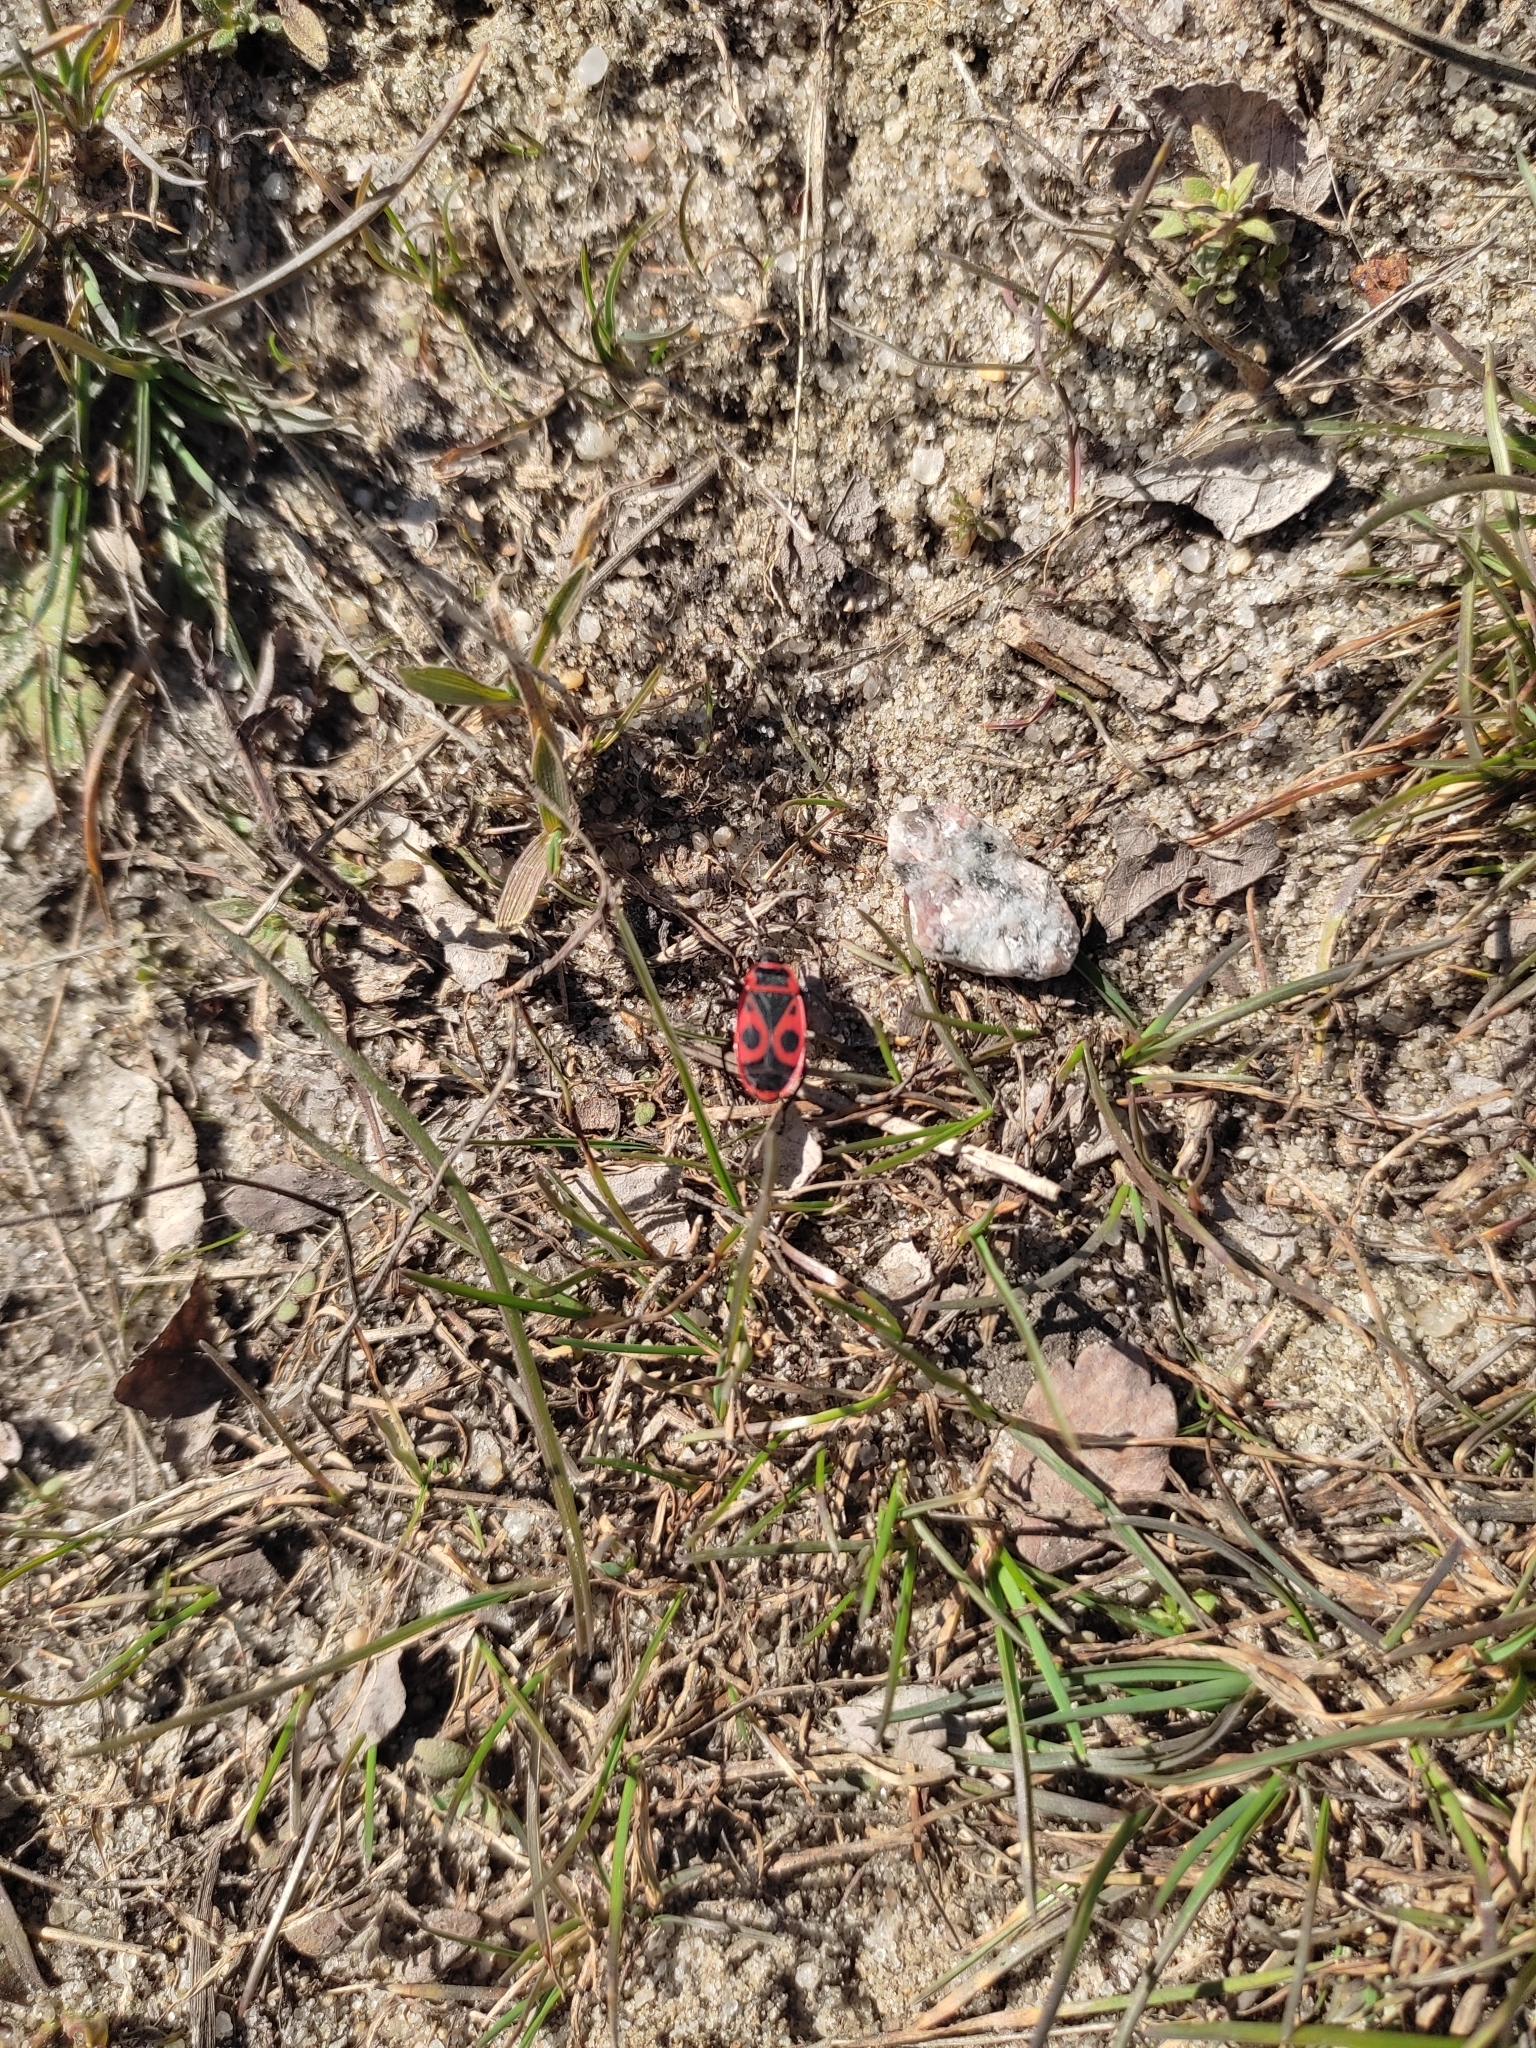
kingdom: Animalia
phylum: Arthropoda
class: Insecta
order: Hemiptera
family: Pyrrhocoridae
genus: Pyrrhocoris
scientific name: Pyrrhocoris apterus
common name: Firebug
